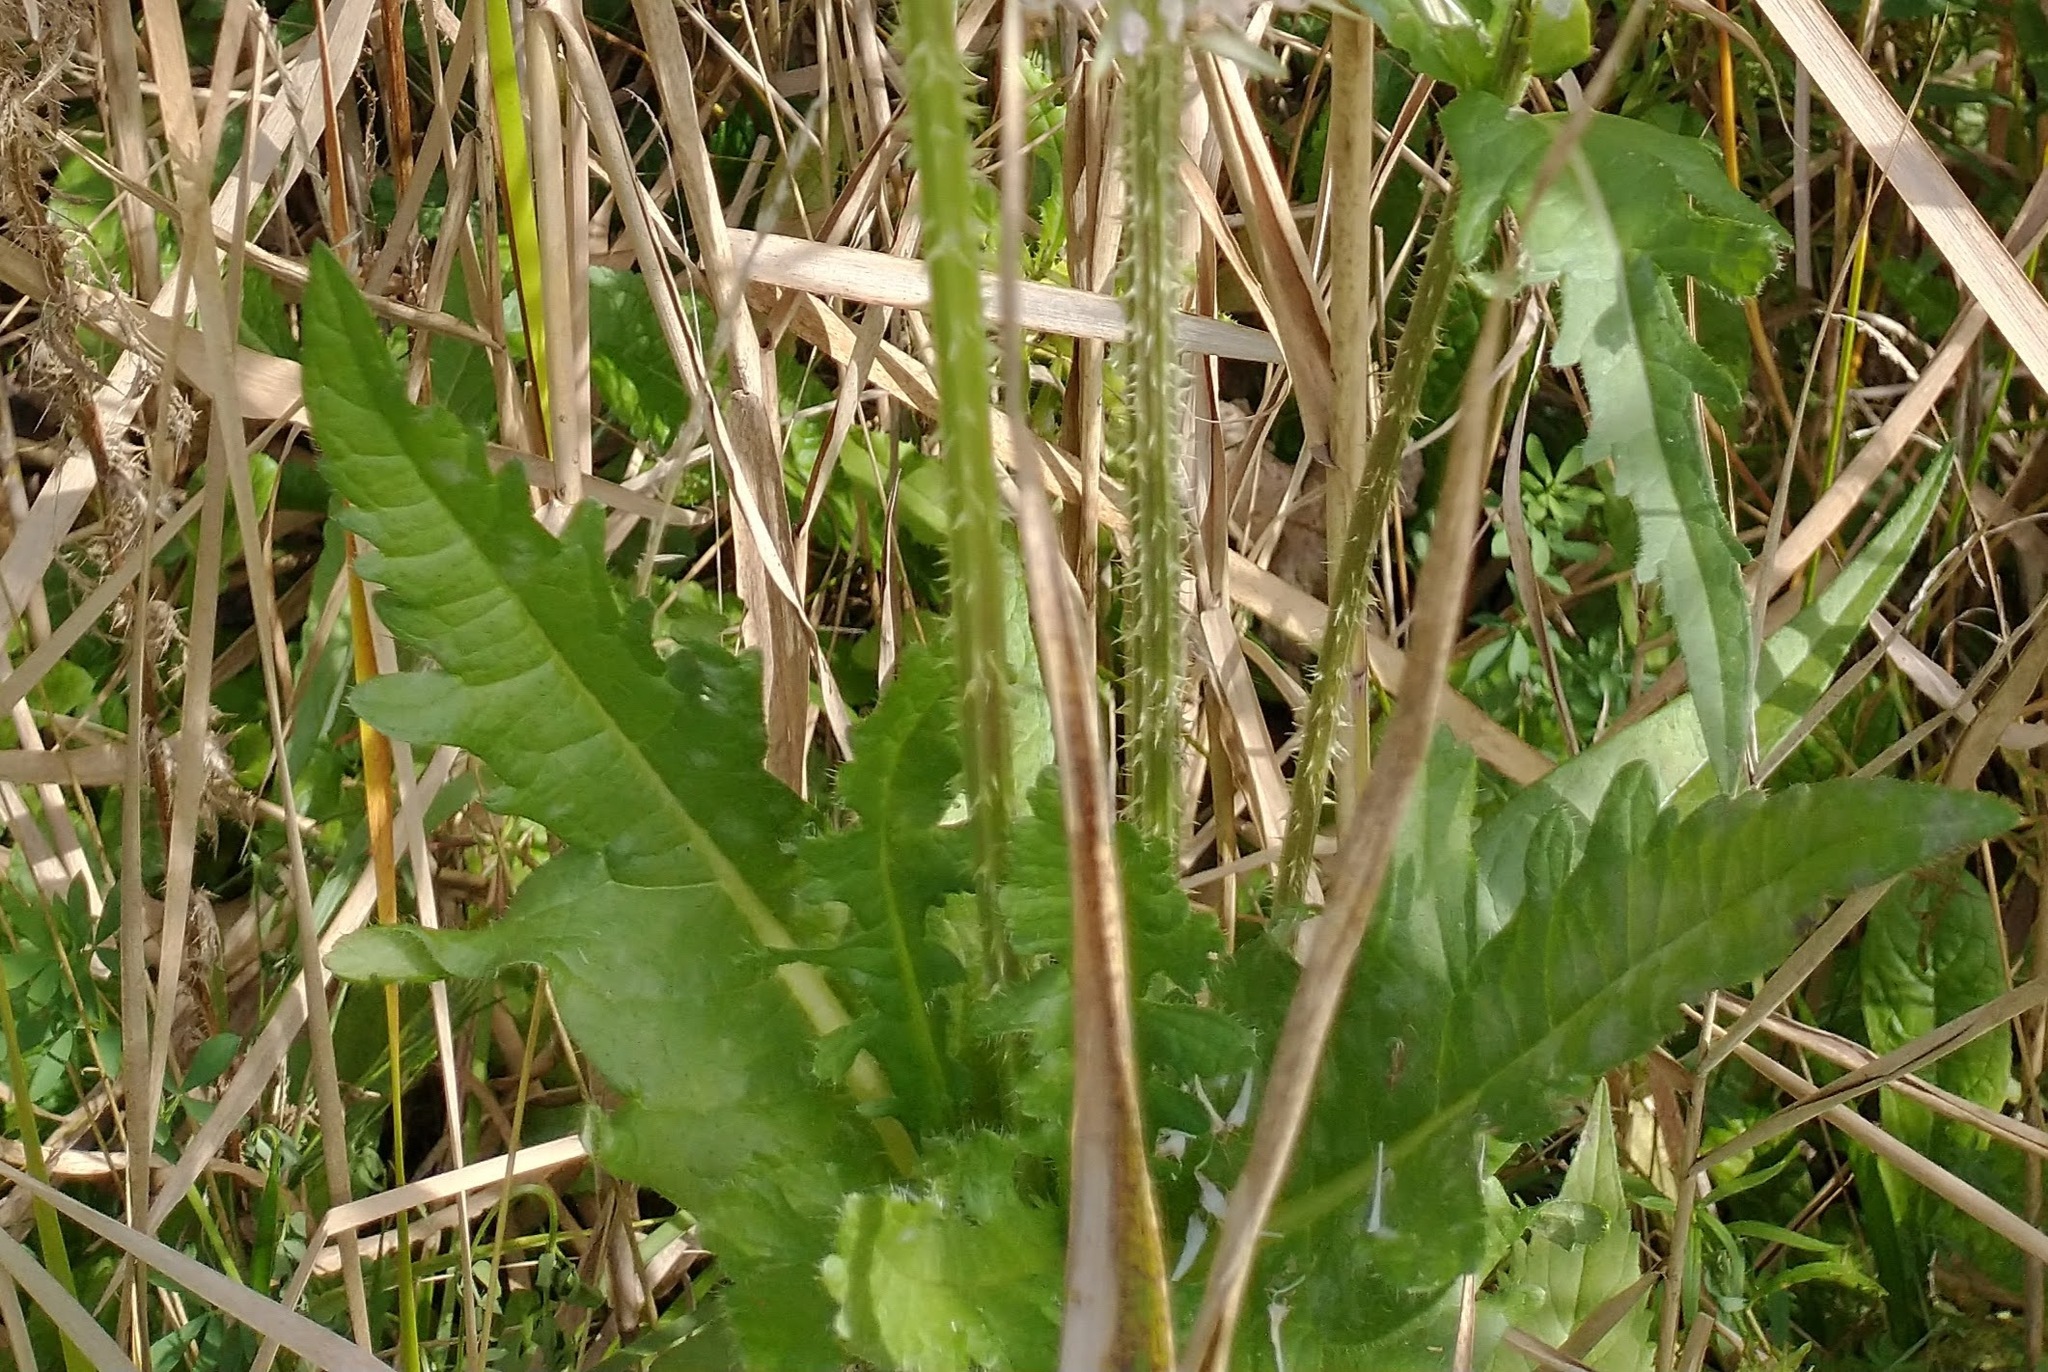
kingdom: Plantae
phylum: Tracheophyta
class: Magnoliopsida
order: Dipsacales
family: Caprifoliaceae
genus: Dipsacus
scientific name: Dipsacus laciniatus
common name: Cut-leaved teasel
